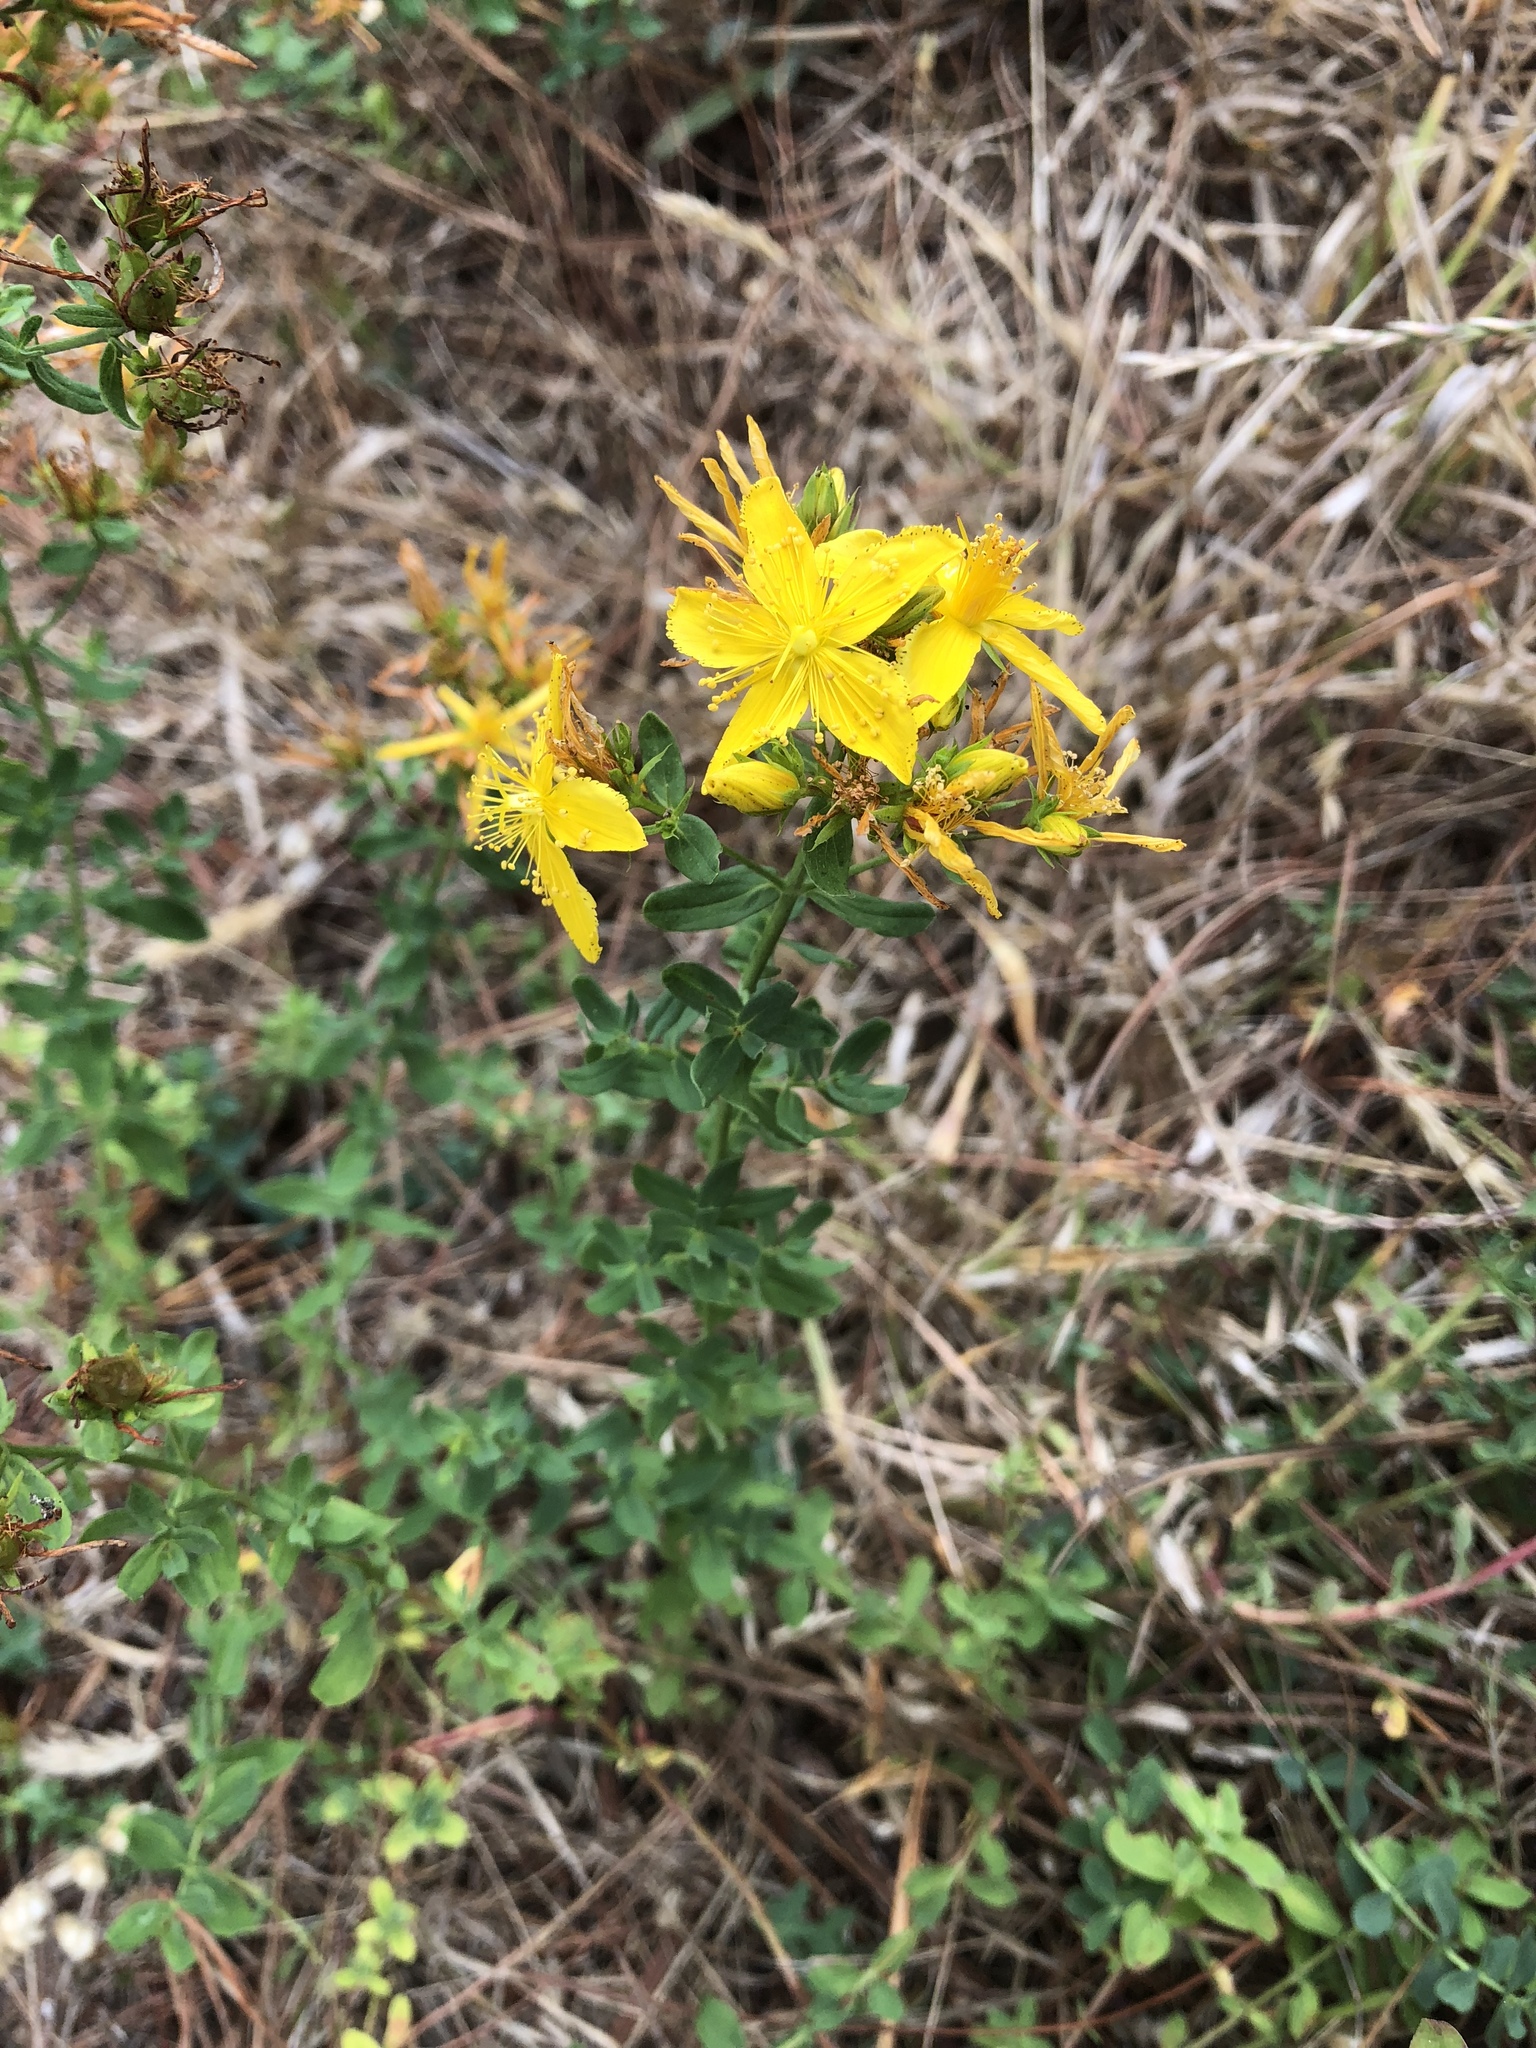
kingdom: Plantae
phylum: Tracheophyta
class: Magnoliopsida
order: Malpighiales
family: Hypericaceae
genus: Hypericum
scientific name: Hypericum perforatum
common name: Common st. johnswort
